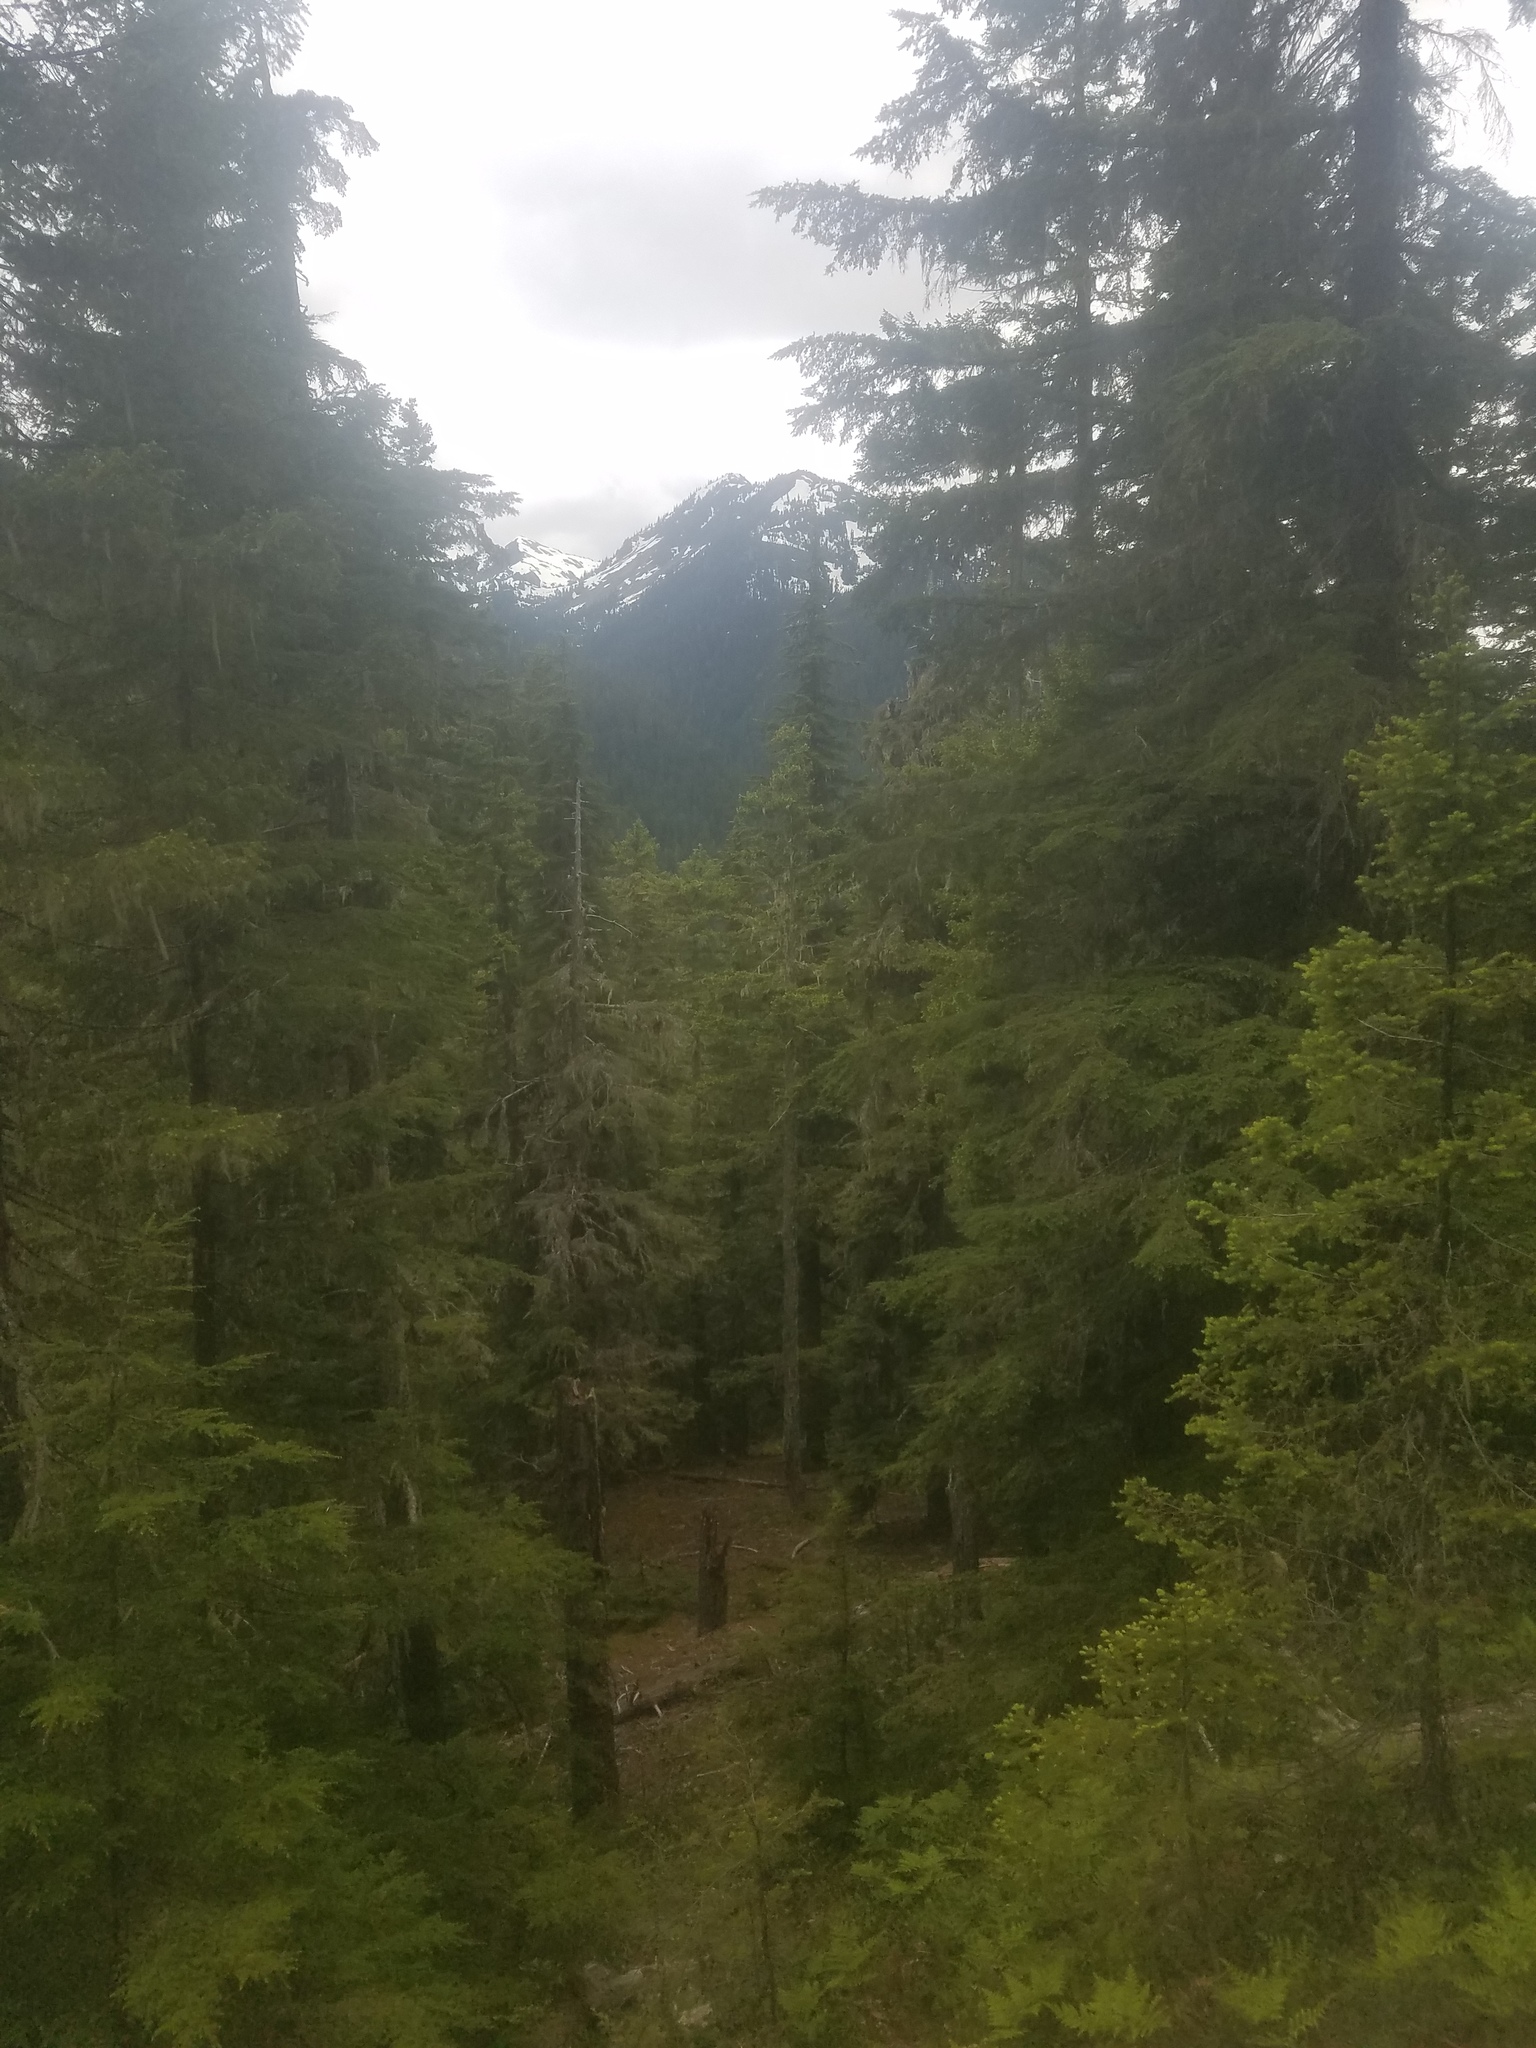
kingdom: Animalia
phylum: Chordata
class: Mammalia
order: Carnivora
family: Ursidae
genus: Ursus
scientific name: Ursus americanus
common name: American black bear
